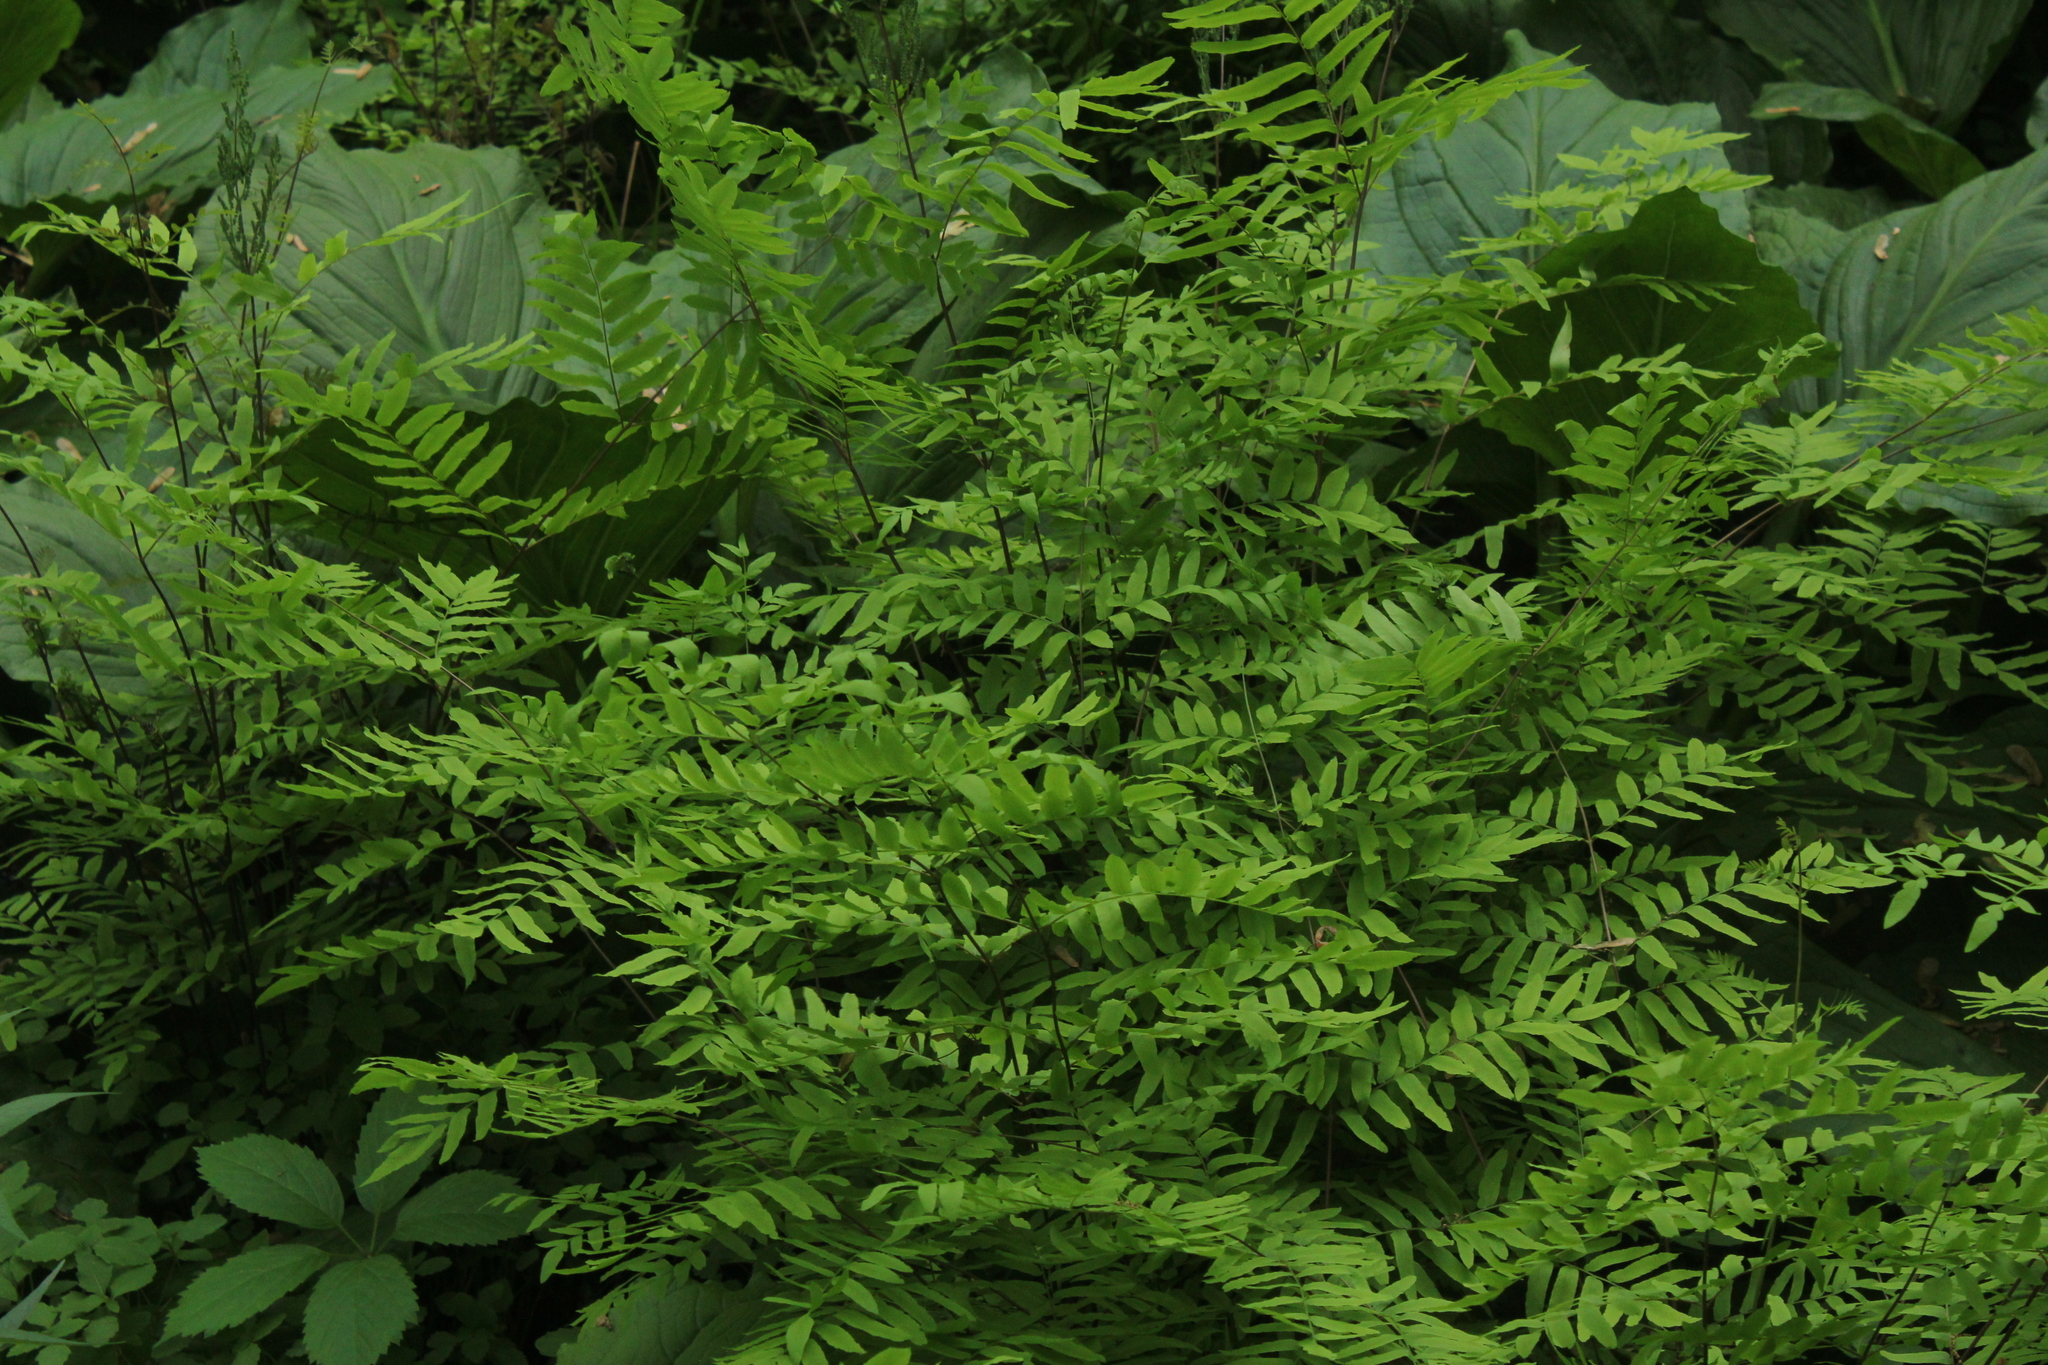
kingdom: Plantae
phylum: Tracheophyta
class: Polypodiopsida
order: Osmundales
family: Osmundaceae
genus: Osmunda
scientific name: Osmunda spectabilis
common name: American royal fern
